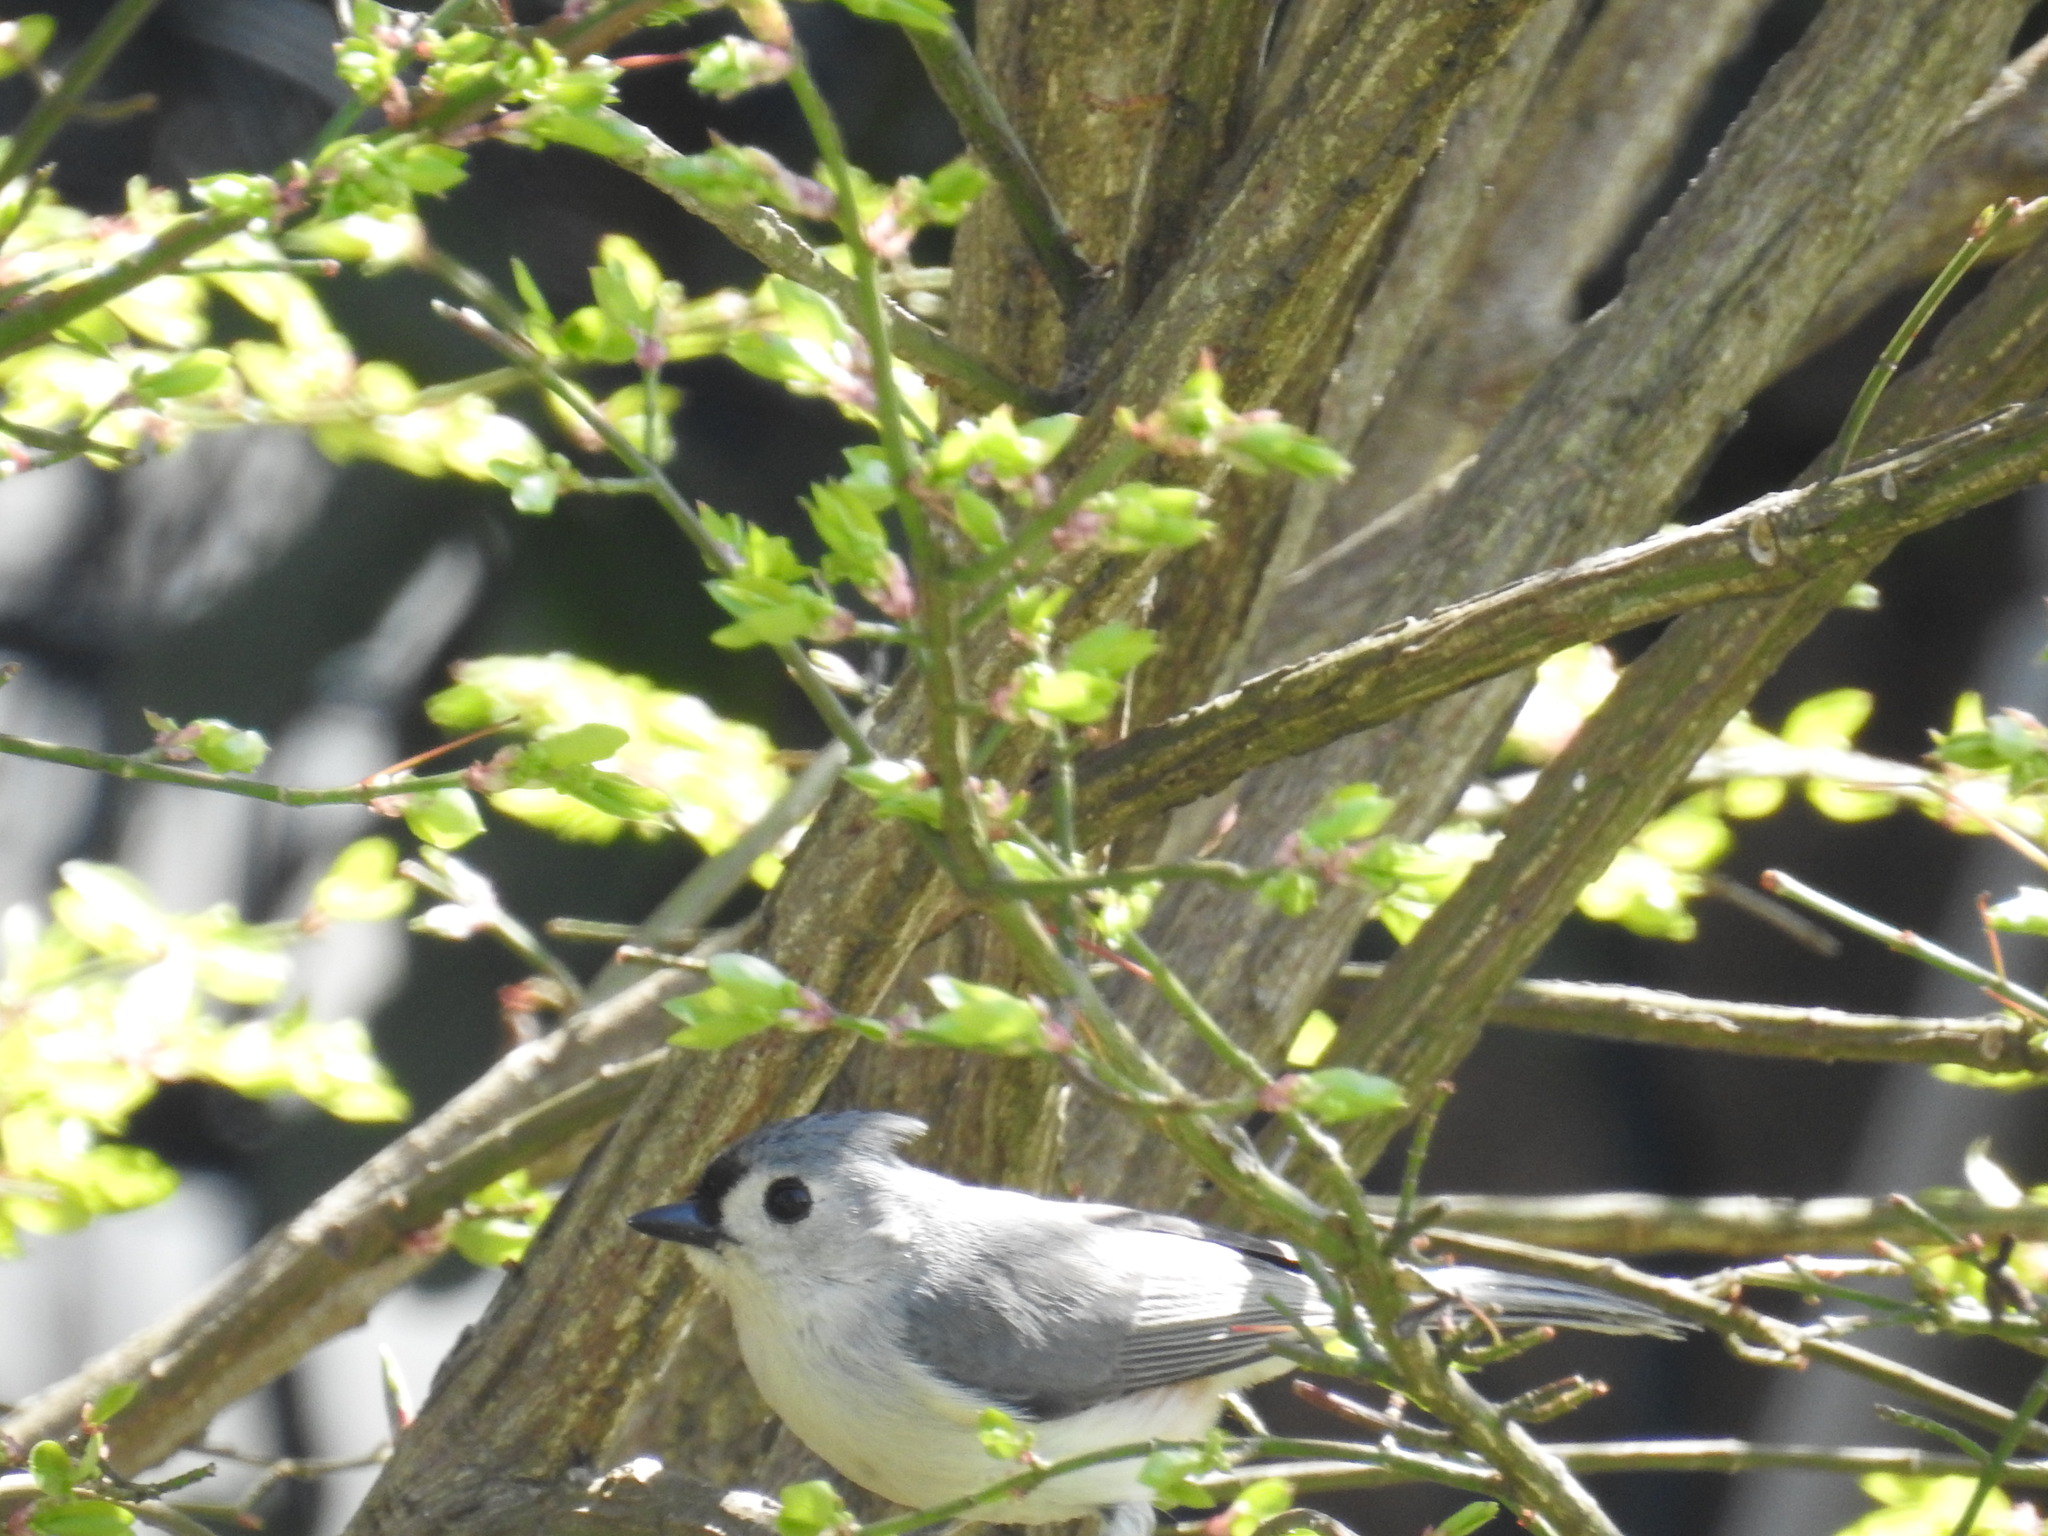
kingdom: Animalia
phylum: Chordata
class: Aves
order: Passeriformes
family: Paridae
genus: Baeolophus
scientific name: Baeolophus bicolor
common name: Tufted titmouse
